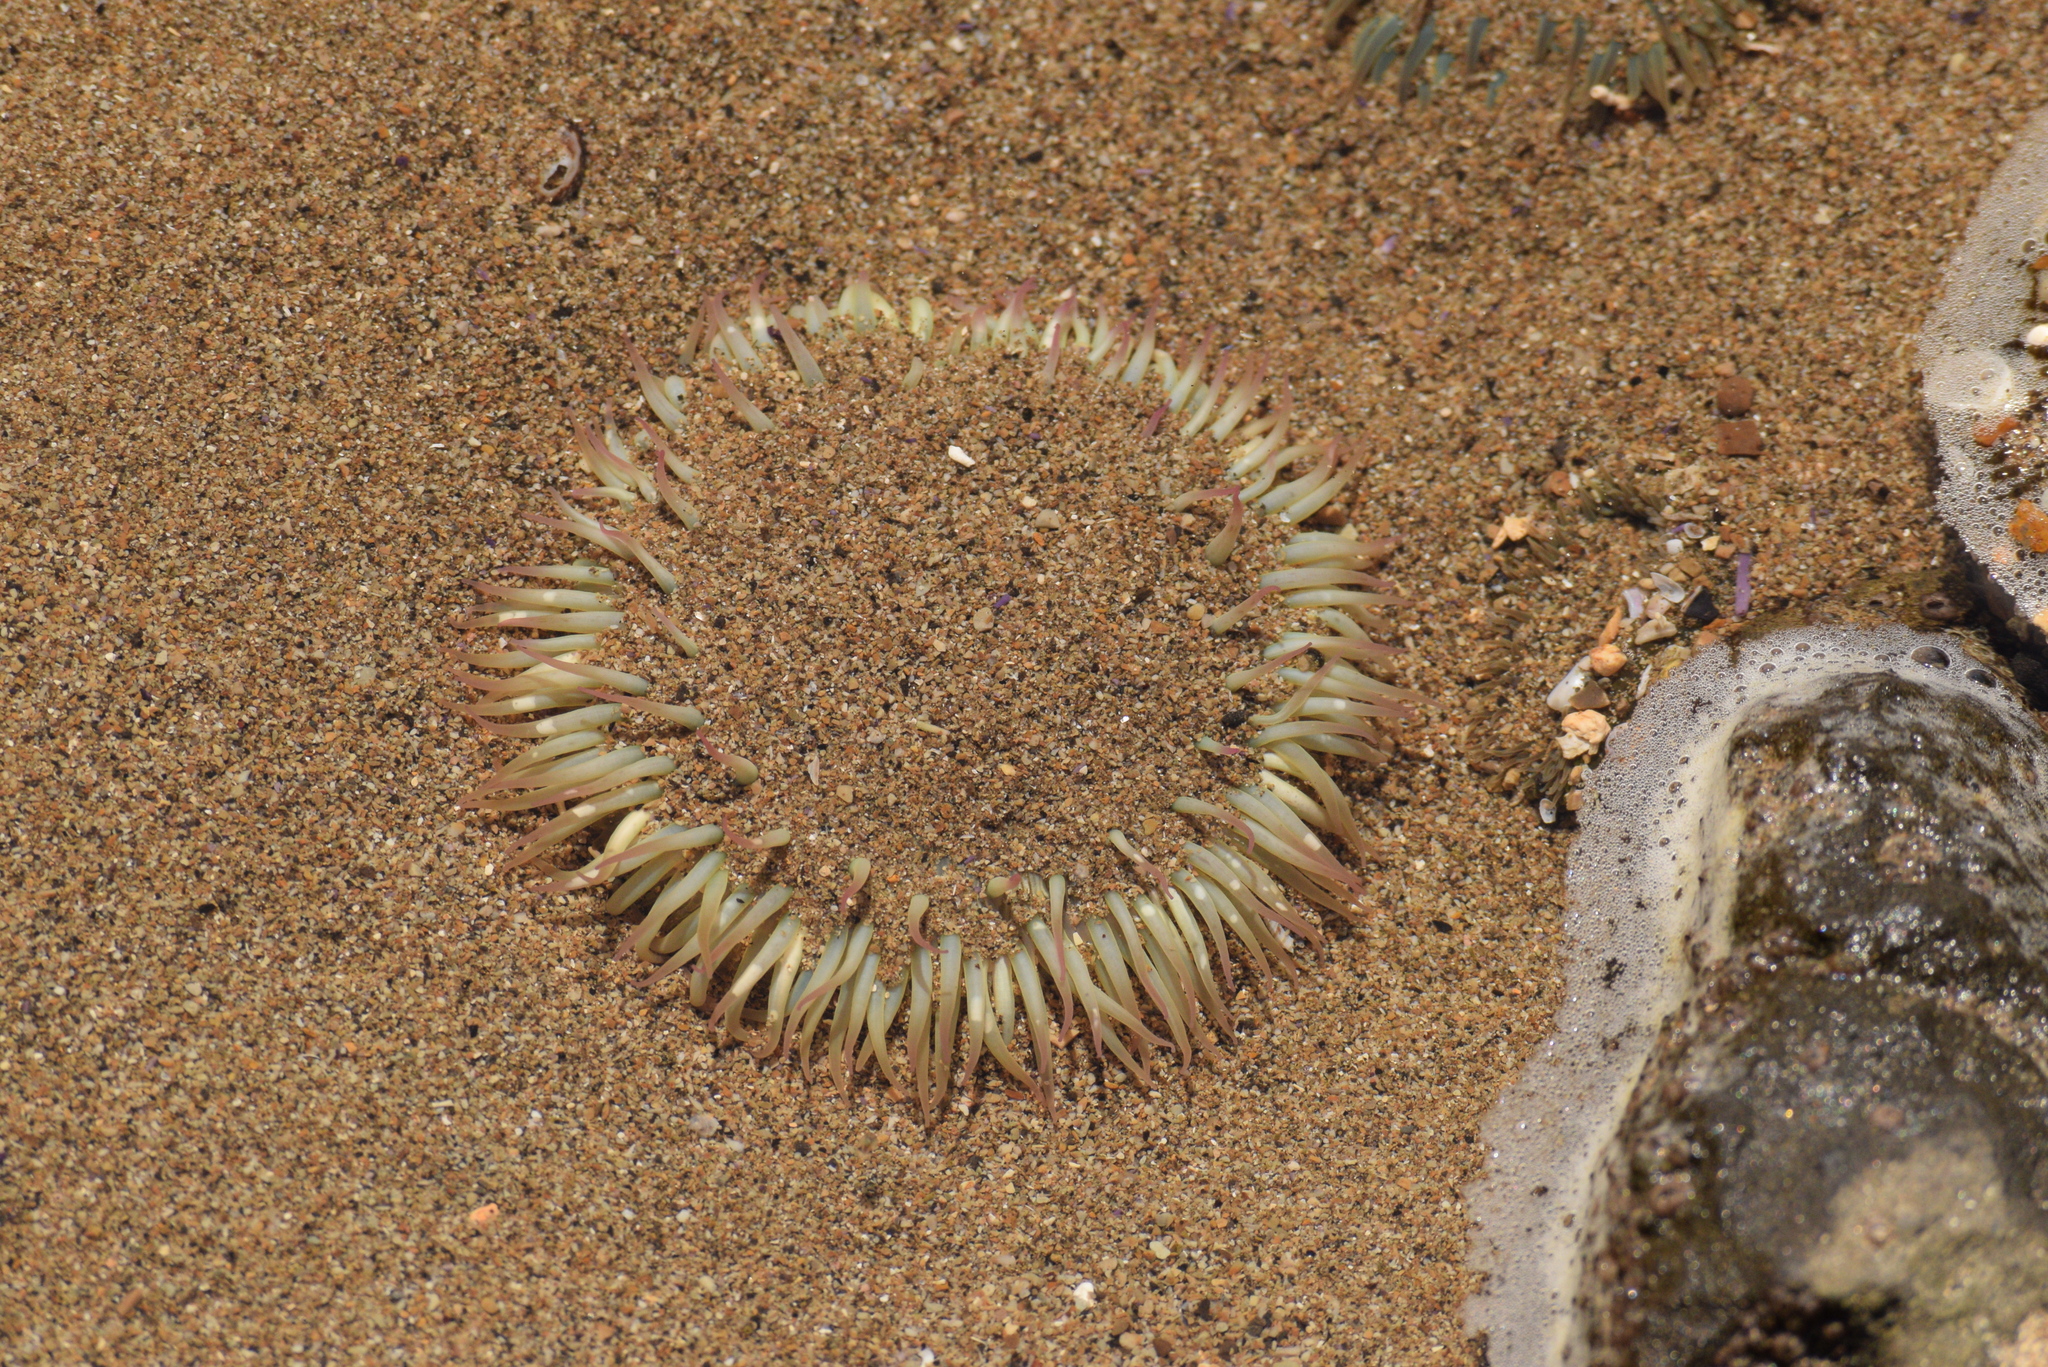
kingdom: Animalia
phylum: Cnidaria
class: Anthozoa
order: Actiniaria
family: Actiniidae
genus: Anthopleura
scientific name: Anthopleura sola
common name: Sun anemone
